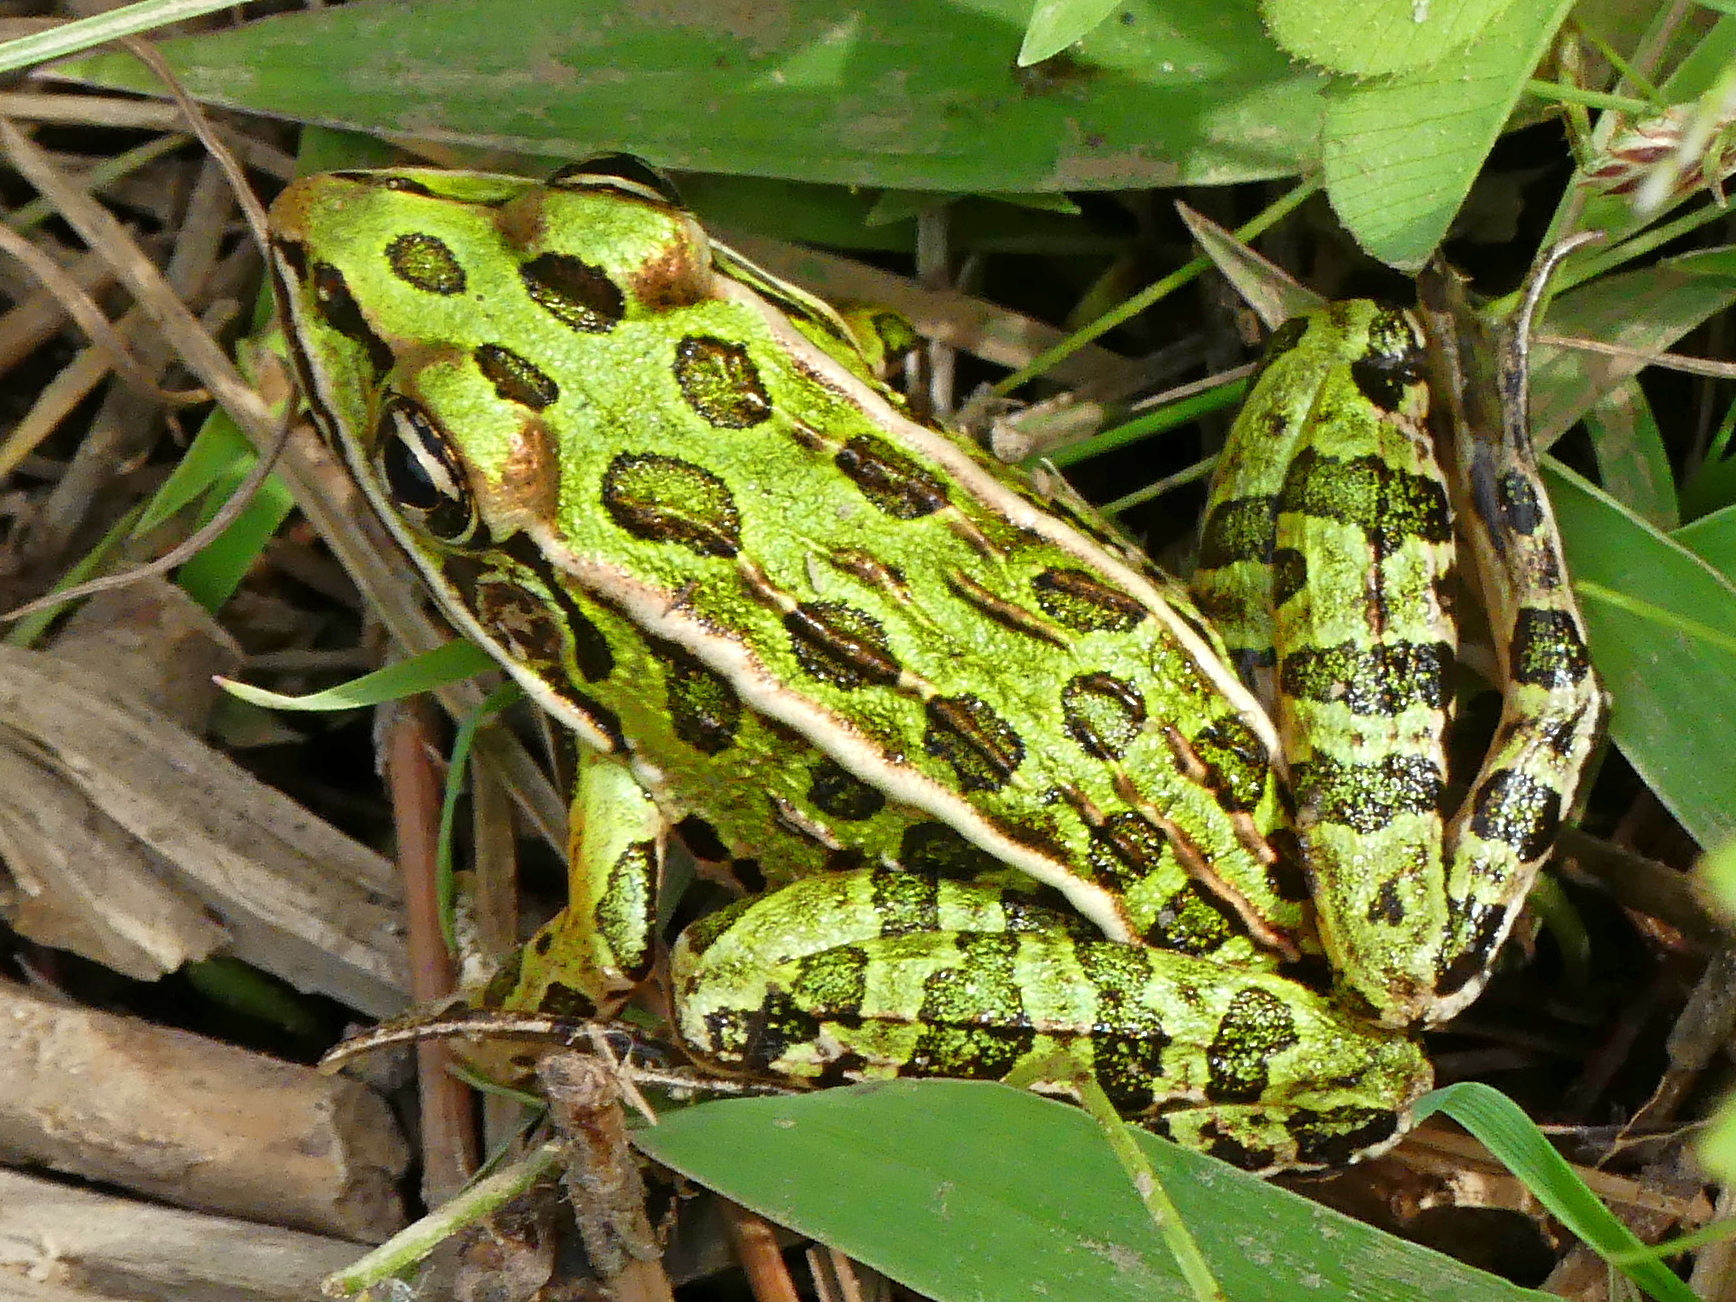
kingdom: Animalia
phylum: Chordata
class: Amphibia
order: Anura
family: Ranidae
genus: Lithobates
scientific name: Lithobates pipiens
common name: Northern leopard frog
